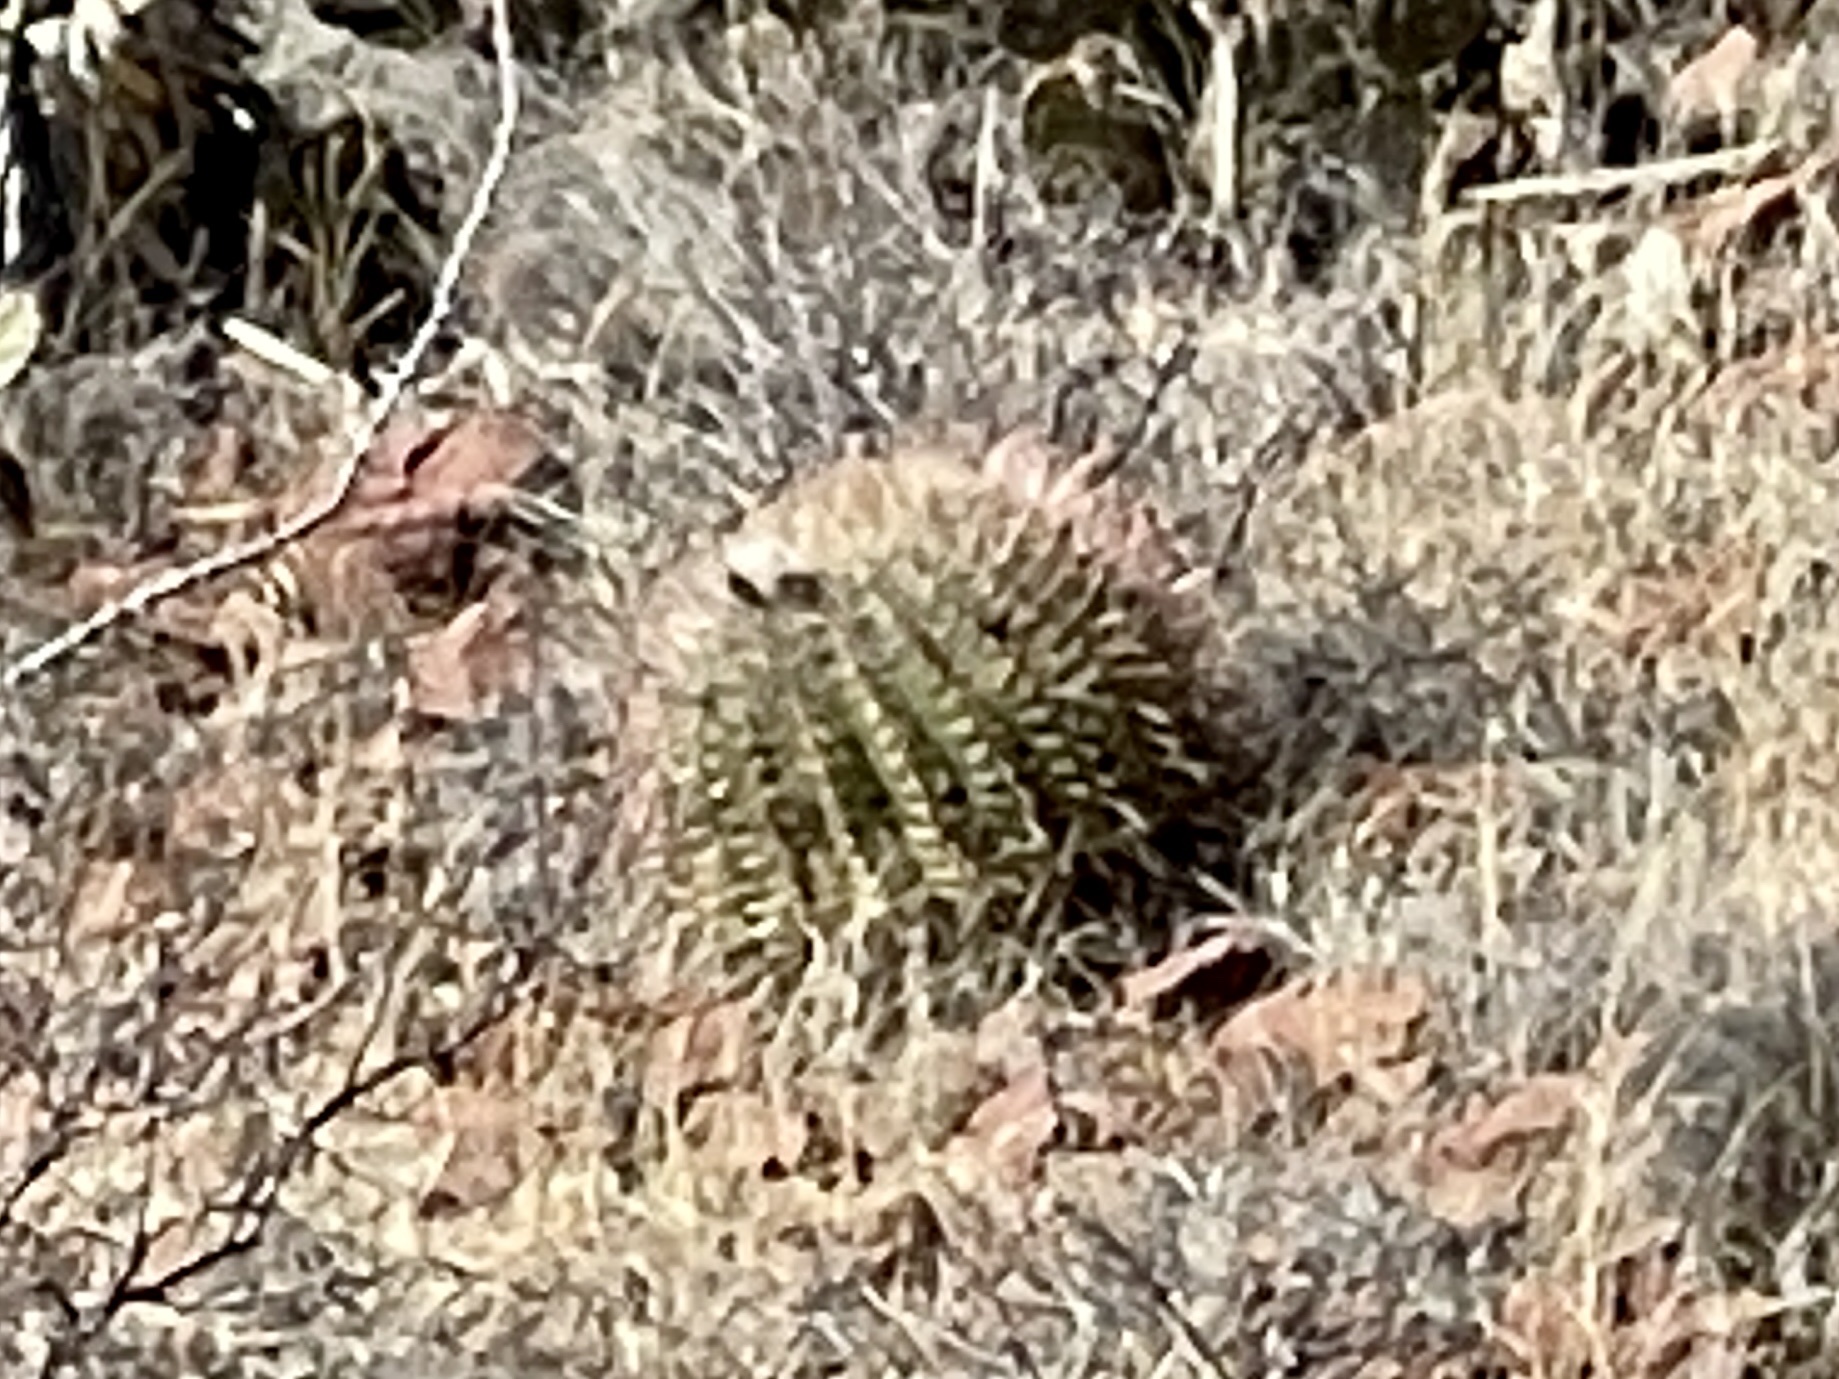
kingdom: Plantae
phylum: Tracheophyta
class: Magnoliopsida
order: Caryophyllales
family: Cactaceae
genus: Ferocactus
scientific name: Ferocactus wislizeni
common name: Candy barrel cactus
